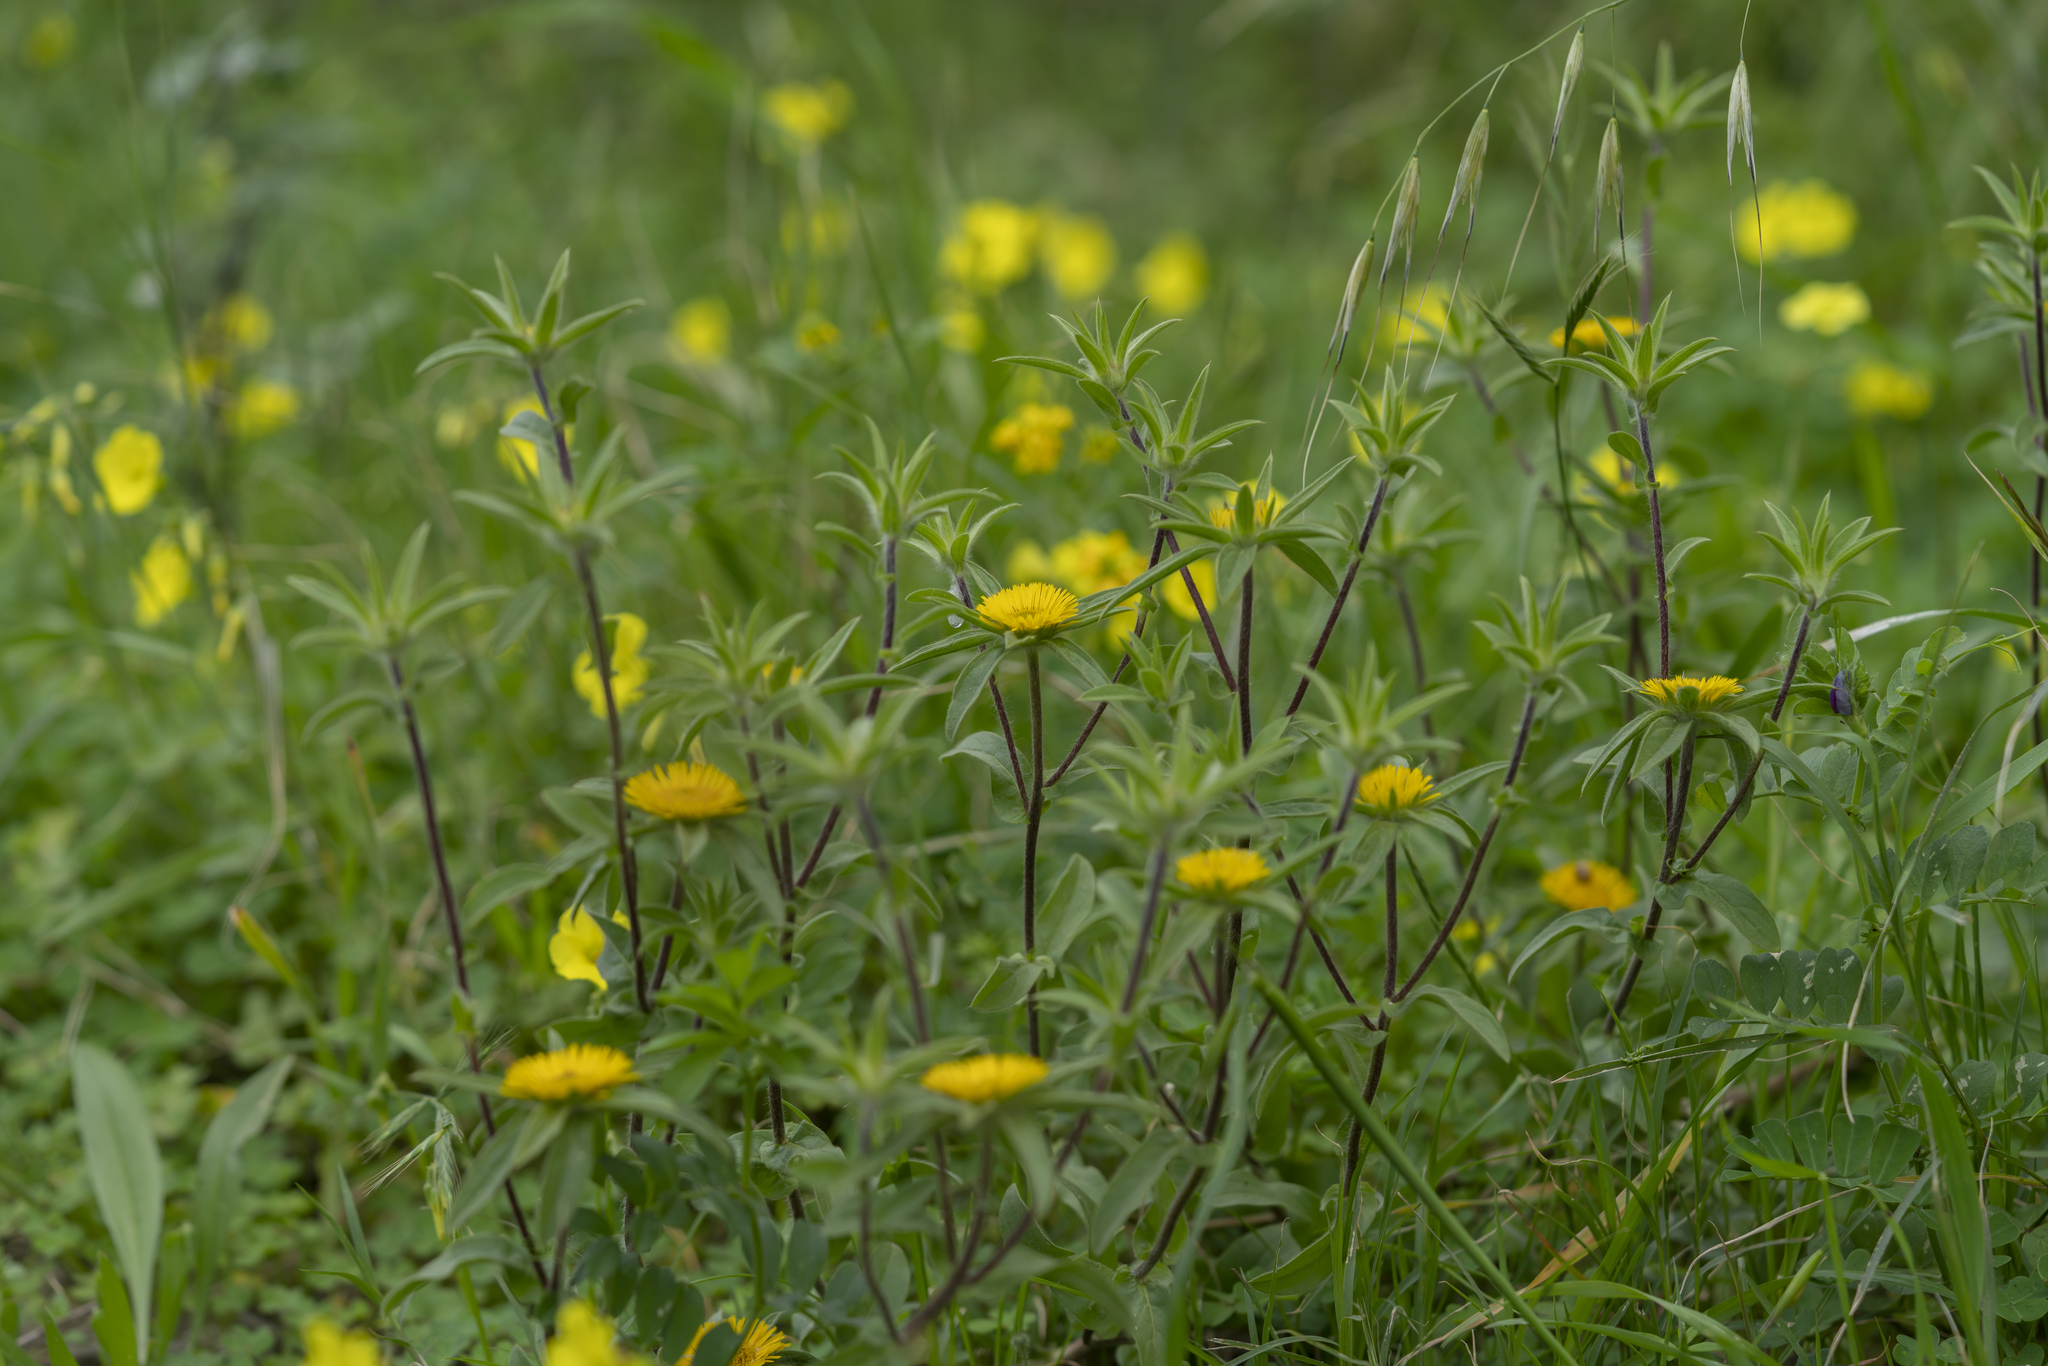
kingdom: Plantae
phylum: Tracheophyta
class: Magnoliopsida
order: Asterales
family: Asteraceae
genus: Pallenis
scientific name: Pallenis spinosa
